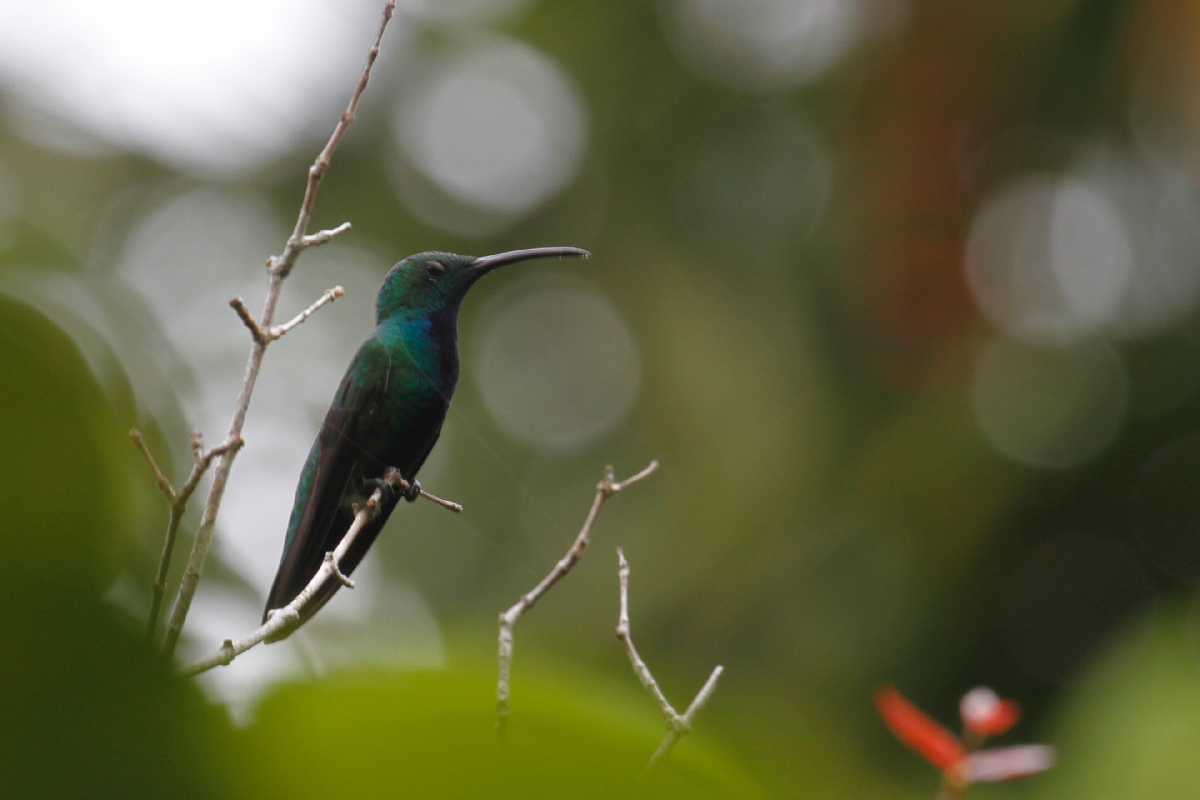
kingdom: Animalia
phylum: Chordata
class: Aves
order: Apodiformes
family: Trochilidae
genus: Anthracothorax
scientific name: Anthracothorax prevostii
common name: Green-breasted mango
